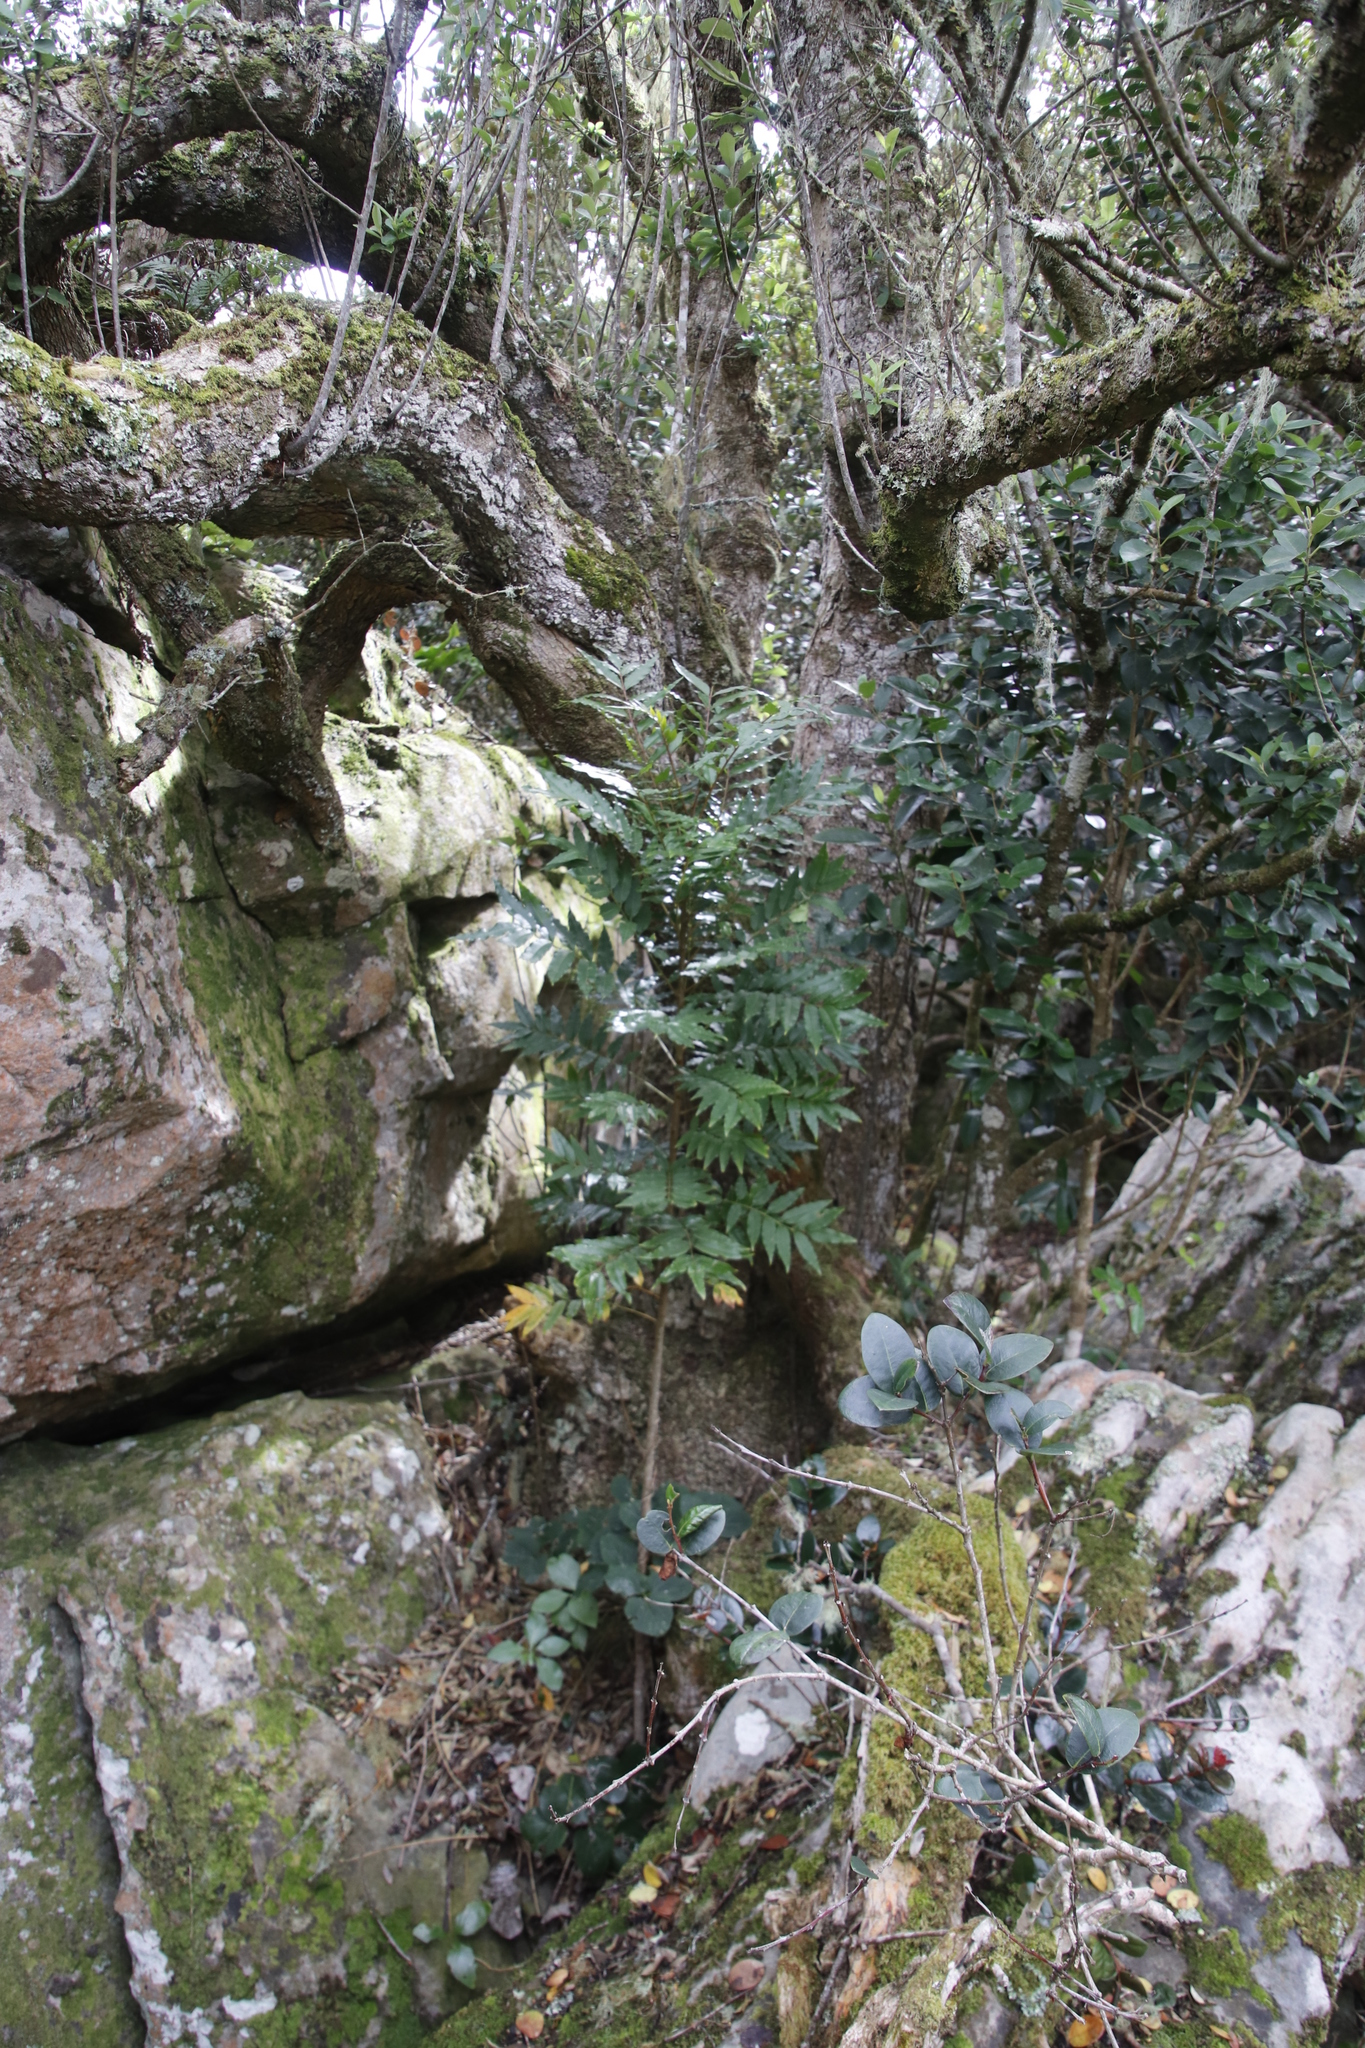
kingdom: Plantae
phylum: Tracheophyta
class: Magnoliopsida
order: Sapindales
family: Meliaceae
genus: Ekebergia
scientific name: Ekebergia capensis
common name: Cape-ash
